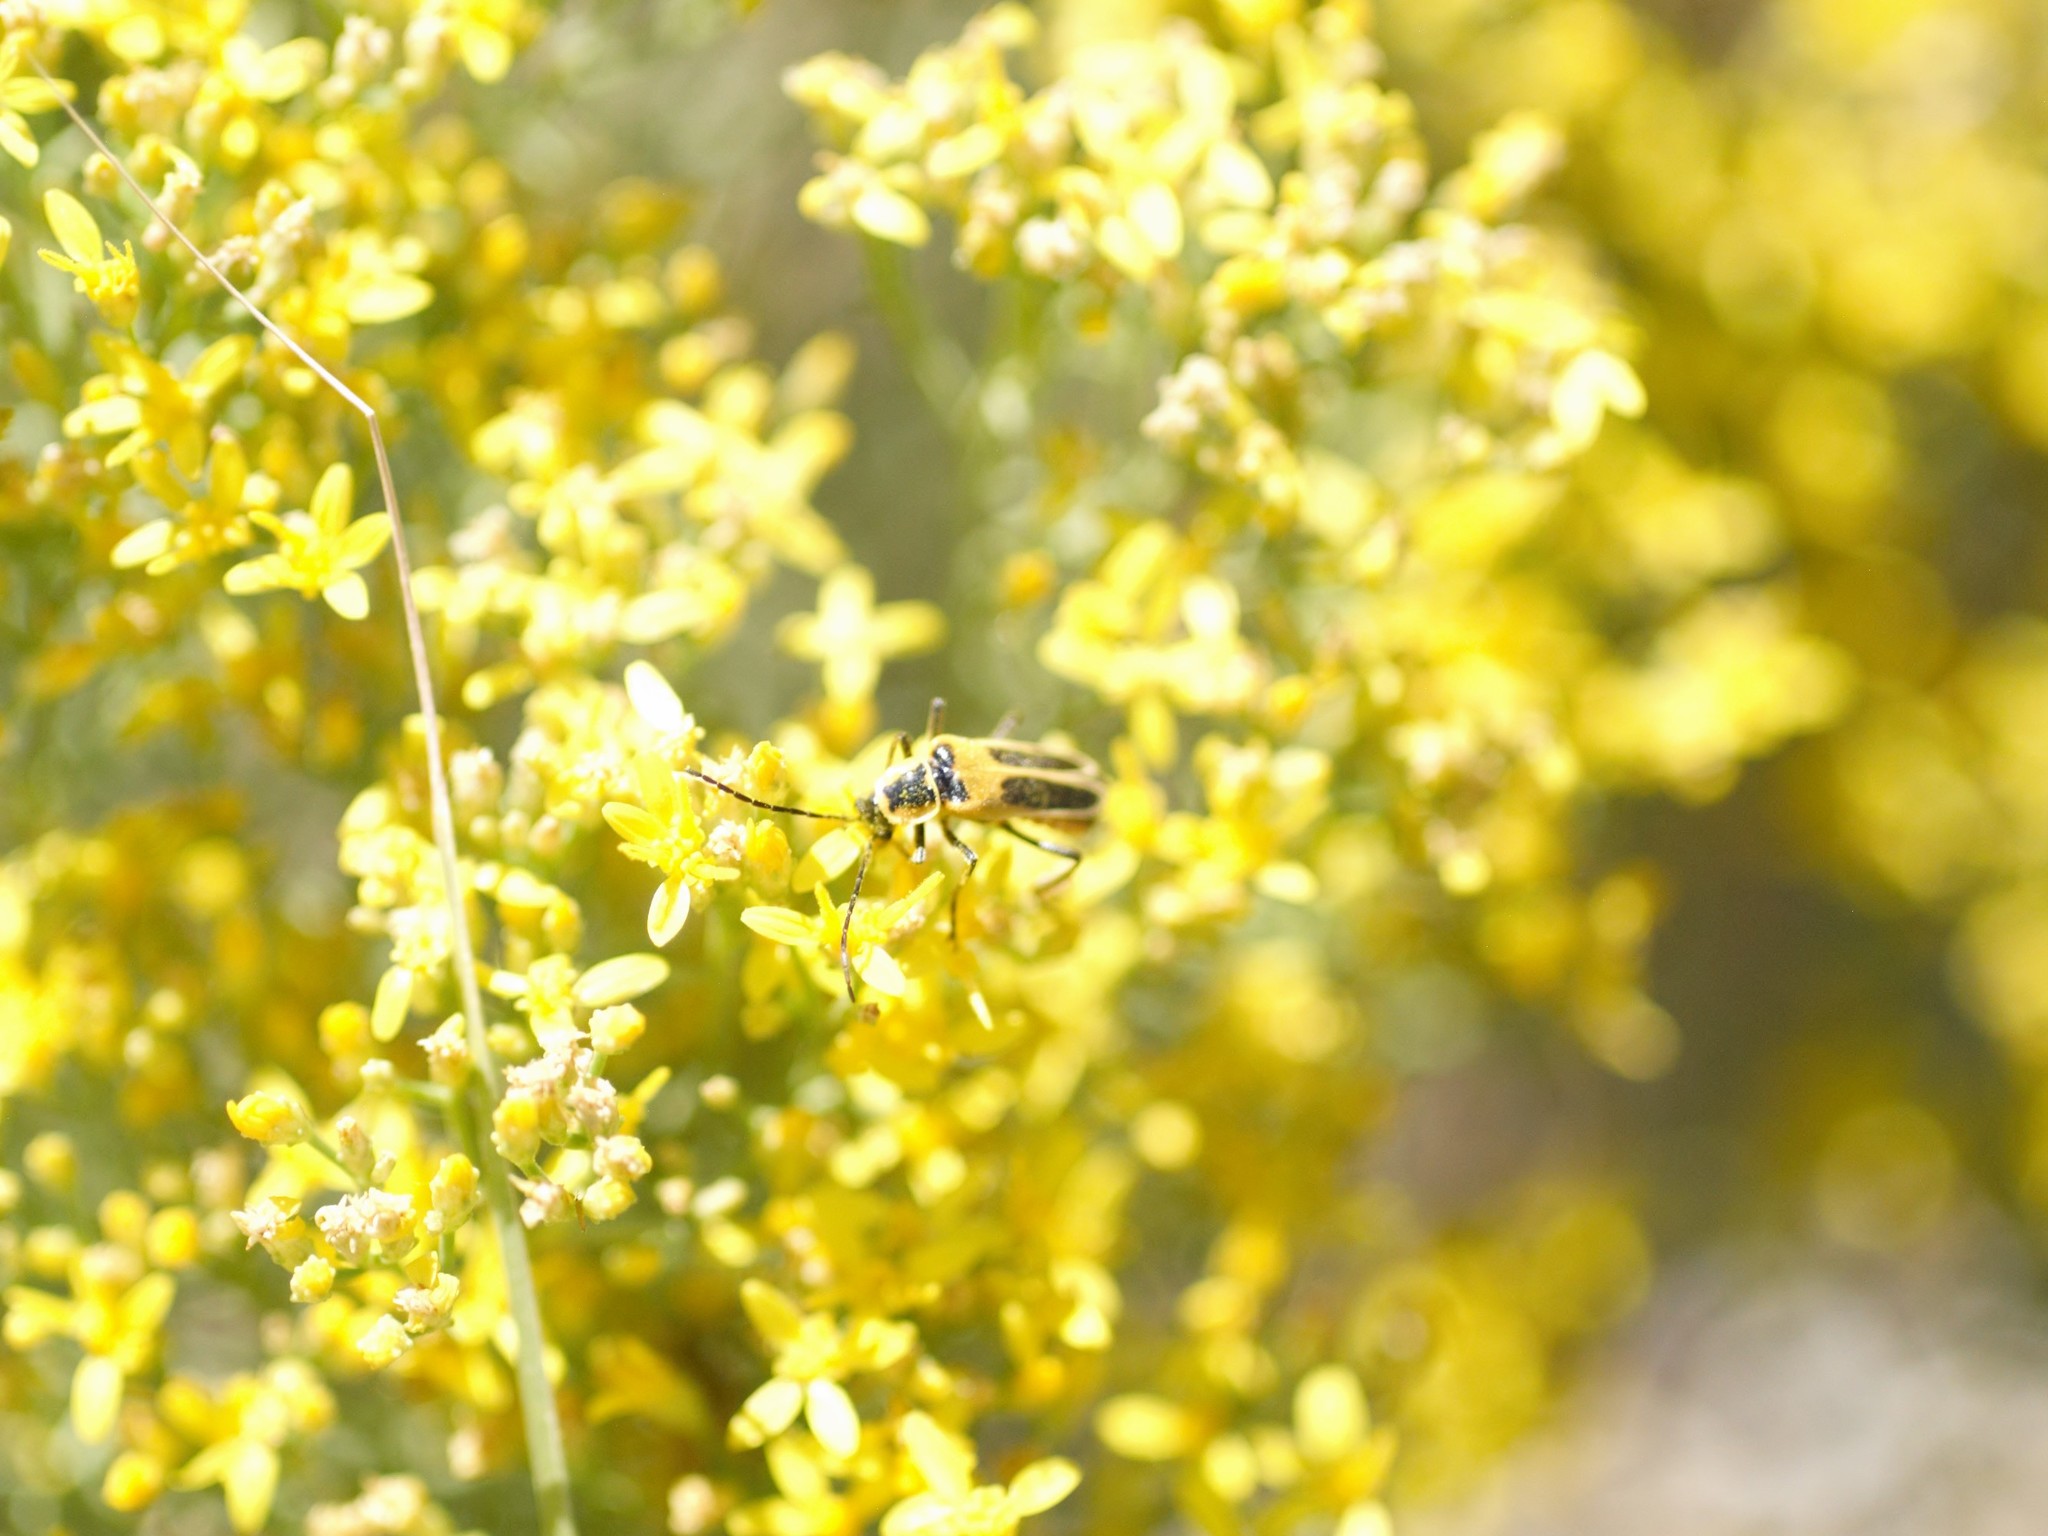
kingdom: Animalia
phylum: Arthropoda
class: Insecta
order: Coleoptera
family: Cantharidae
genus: Chauliognathus
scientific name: Chauliognathus lewisi
